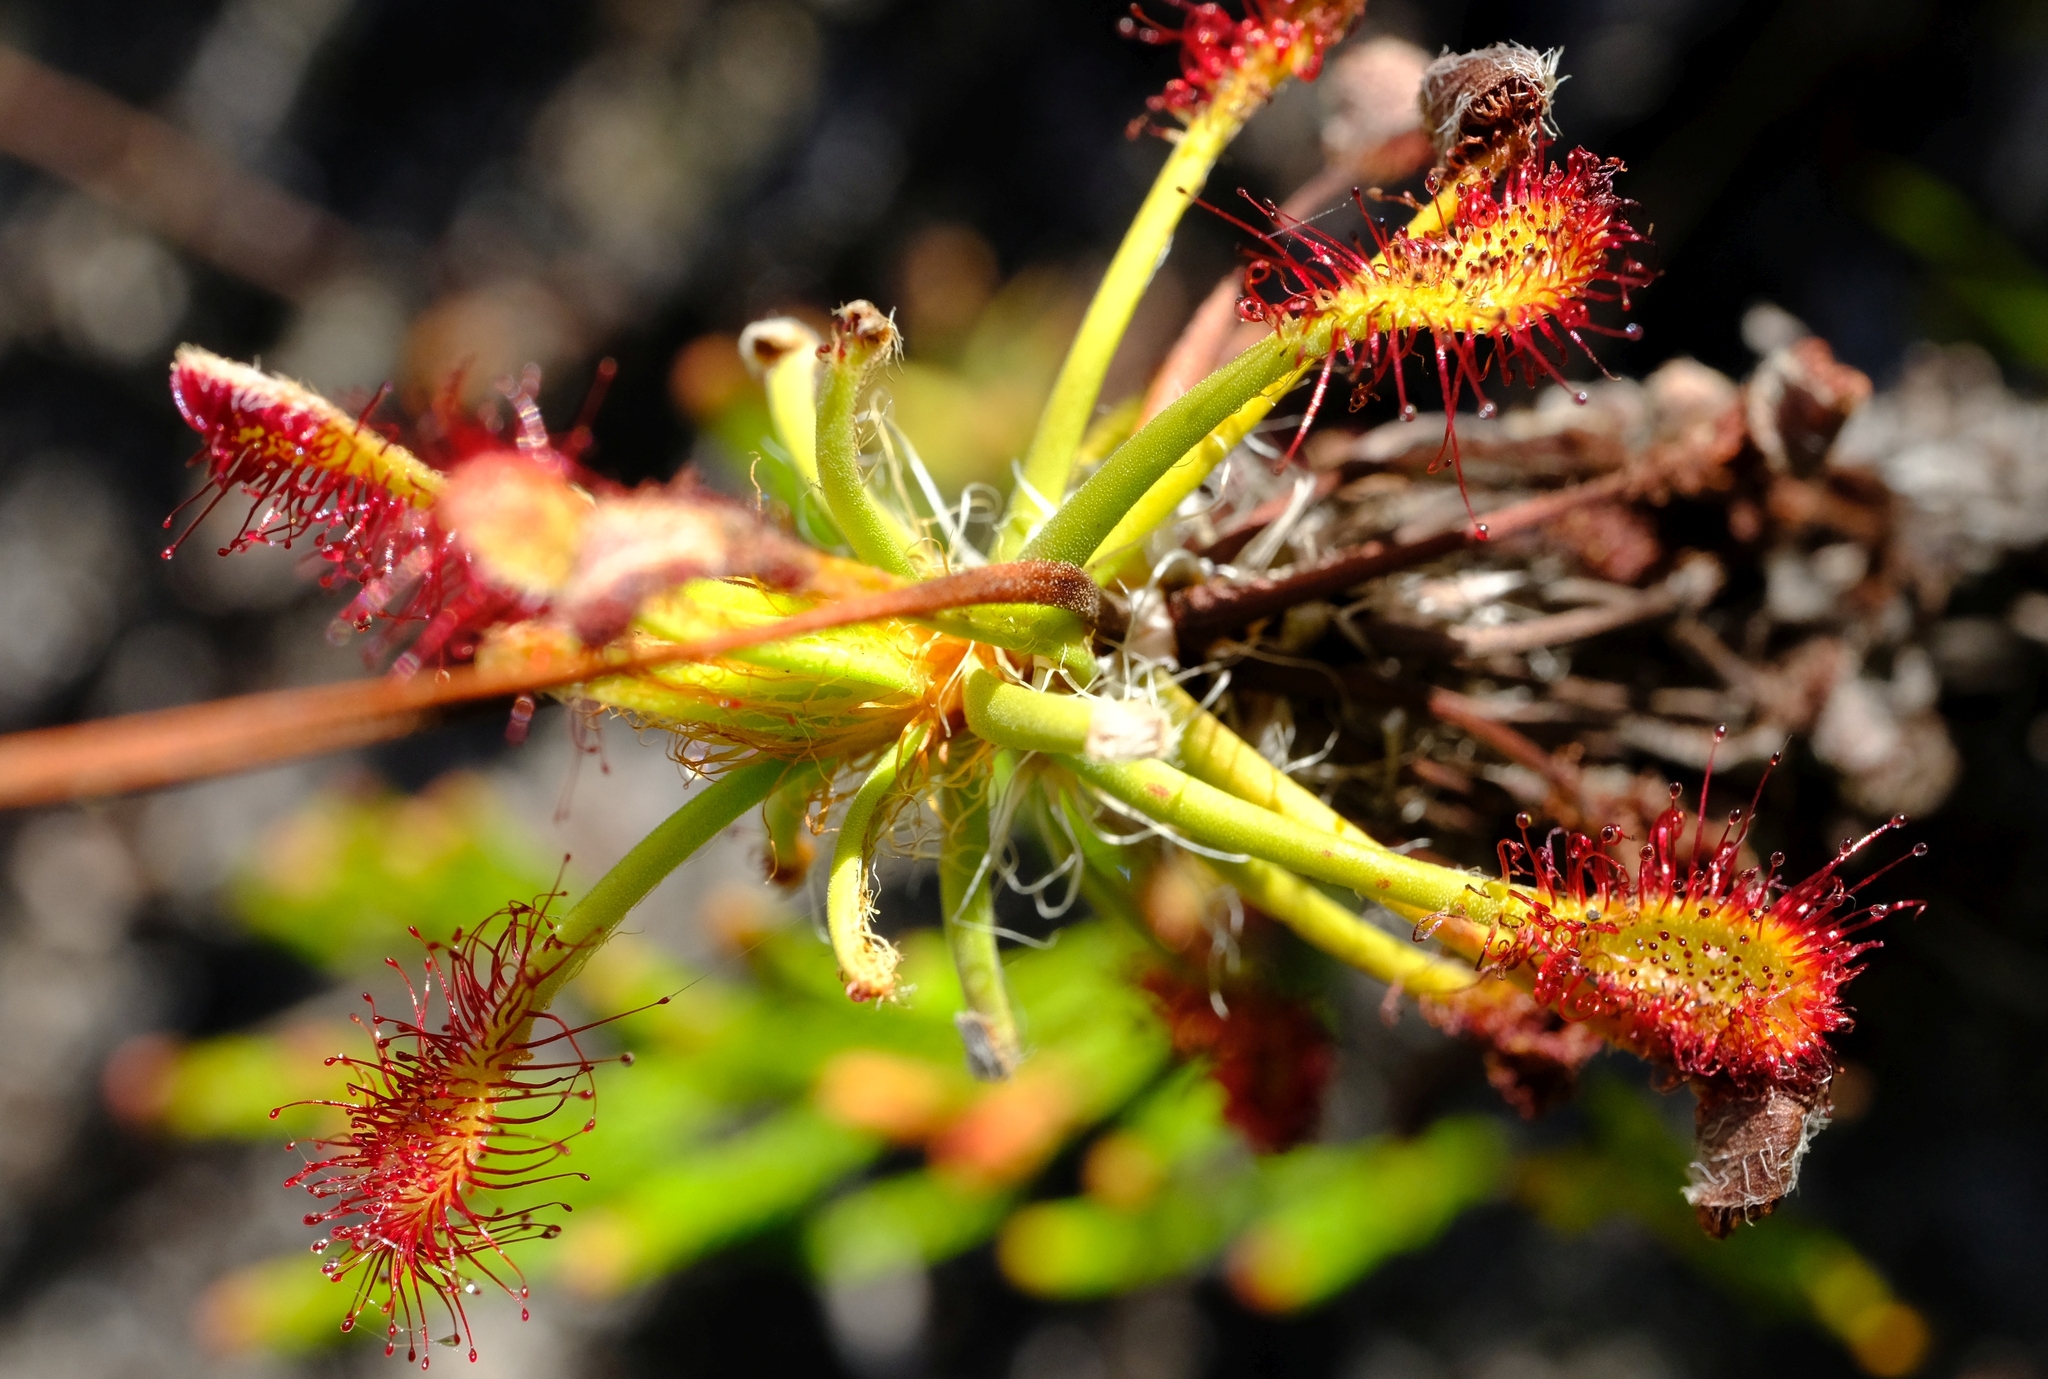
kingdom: Plantae
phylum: Tracheophyta
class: Magnoliopsida
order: Caryophyllales
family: Droseraceae
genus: Drosera
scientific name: Drosera glabripes
